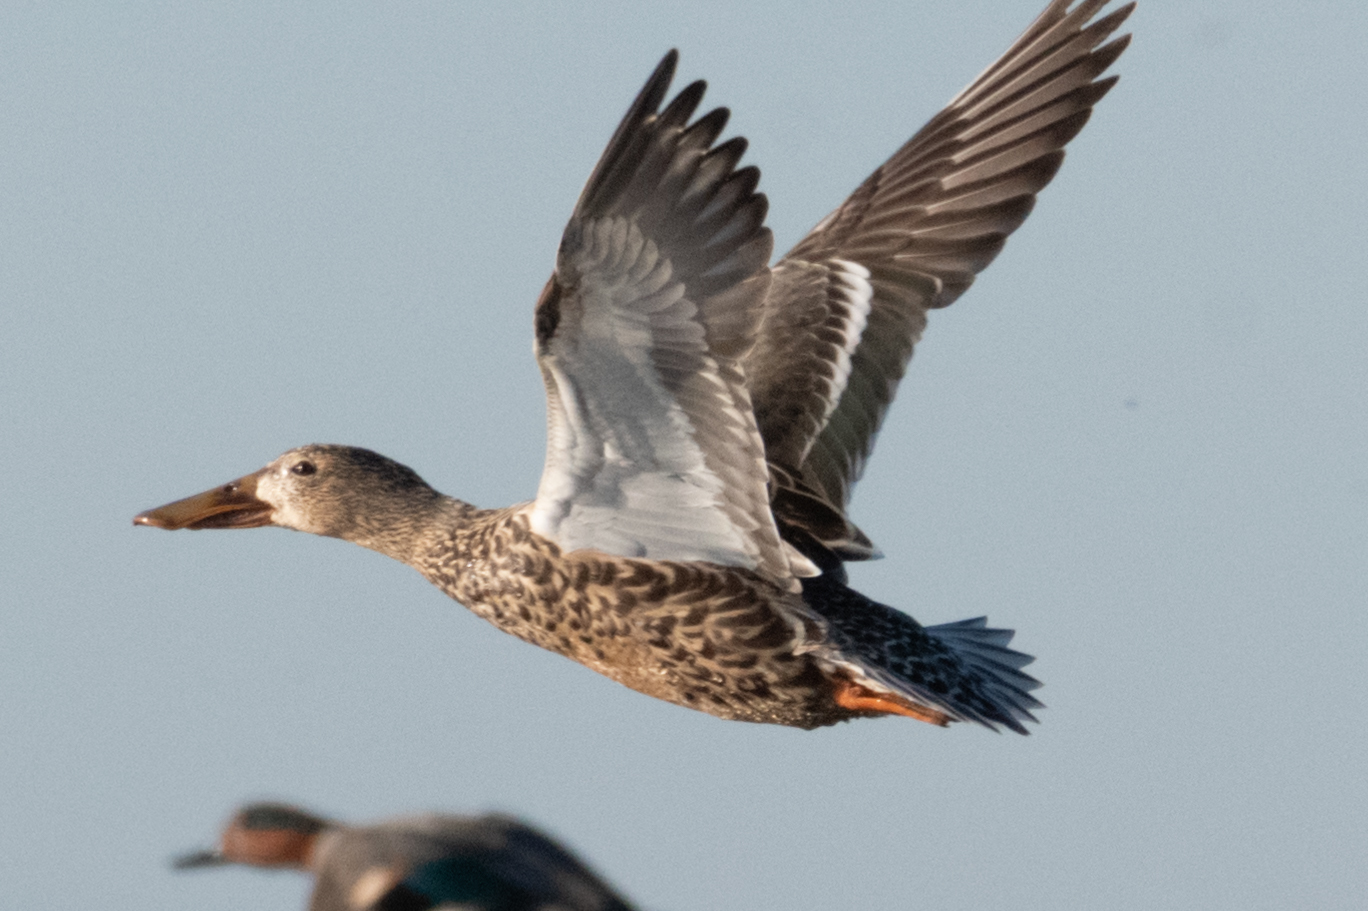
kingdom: Animalia
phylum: Chordata
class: Aves
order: Anseriformes
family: Anatidae
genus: Spatula
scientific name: Spatula clypeata
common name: Northern shoveler
